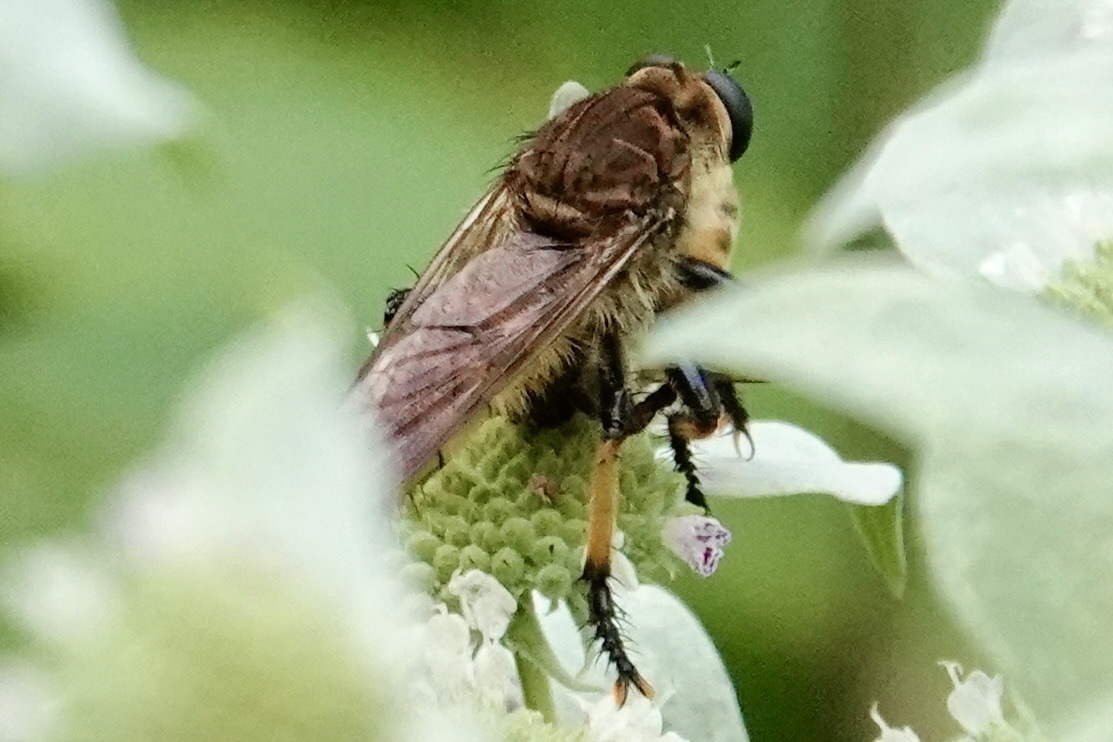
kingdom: Animalia
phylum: Arthropoda
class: Insecta
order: Diptera
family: Asilidae
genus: Promachus
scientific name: Promachus rufipes
